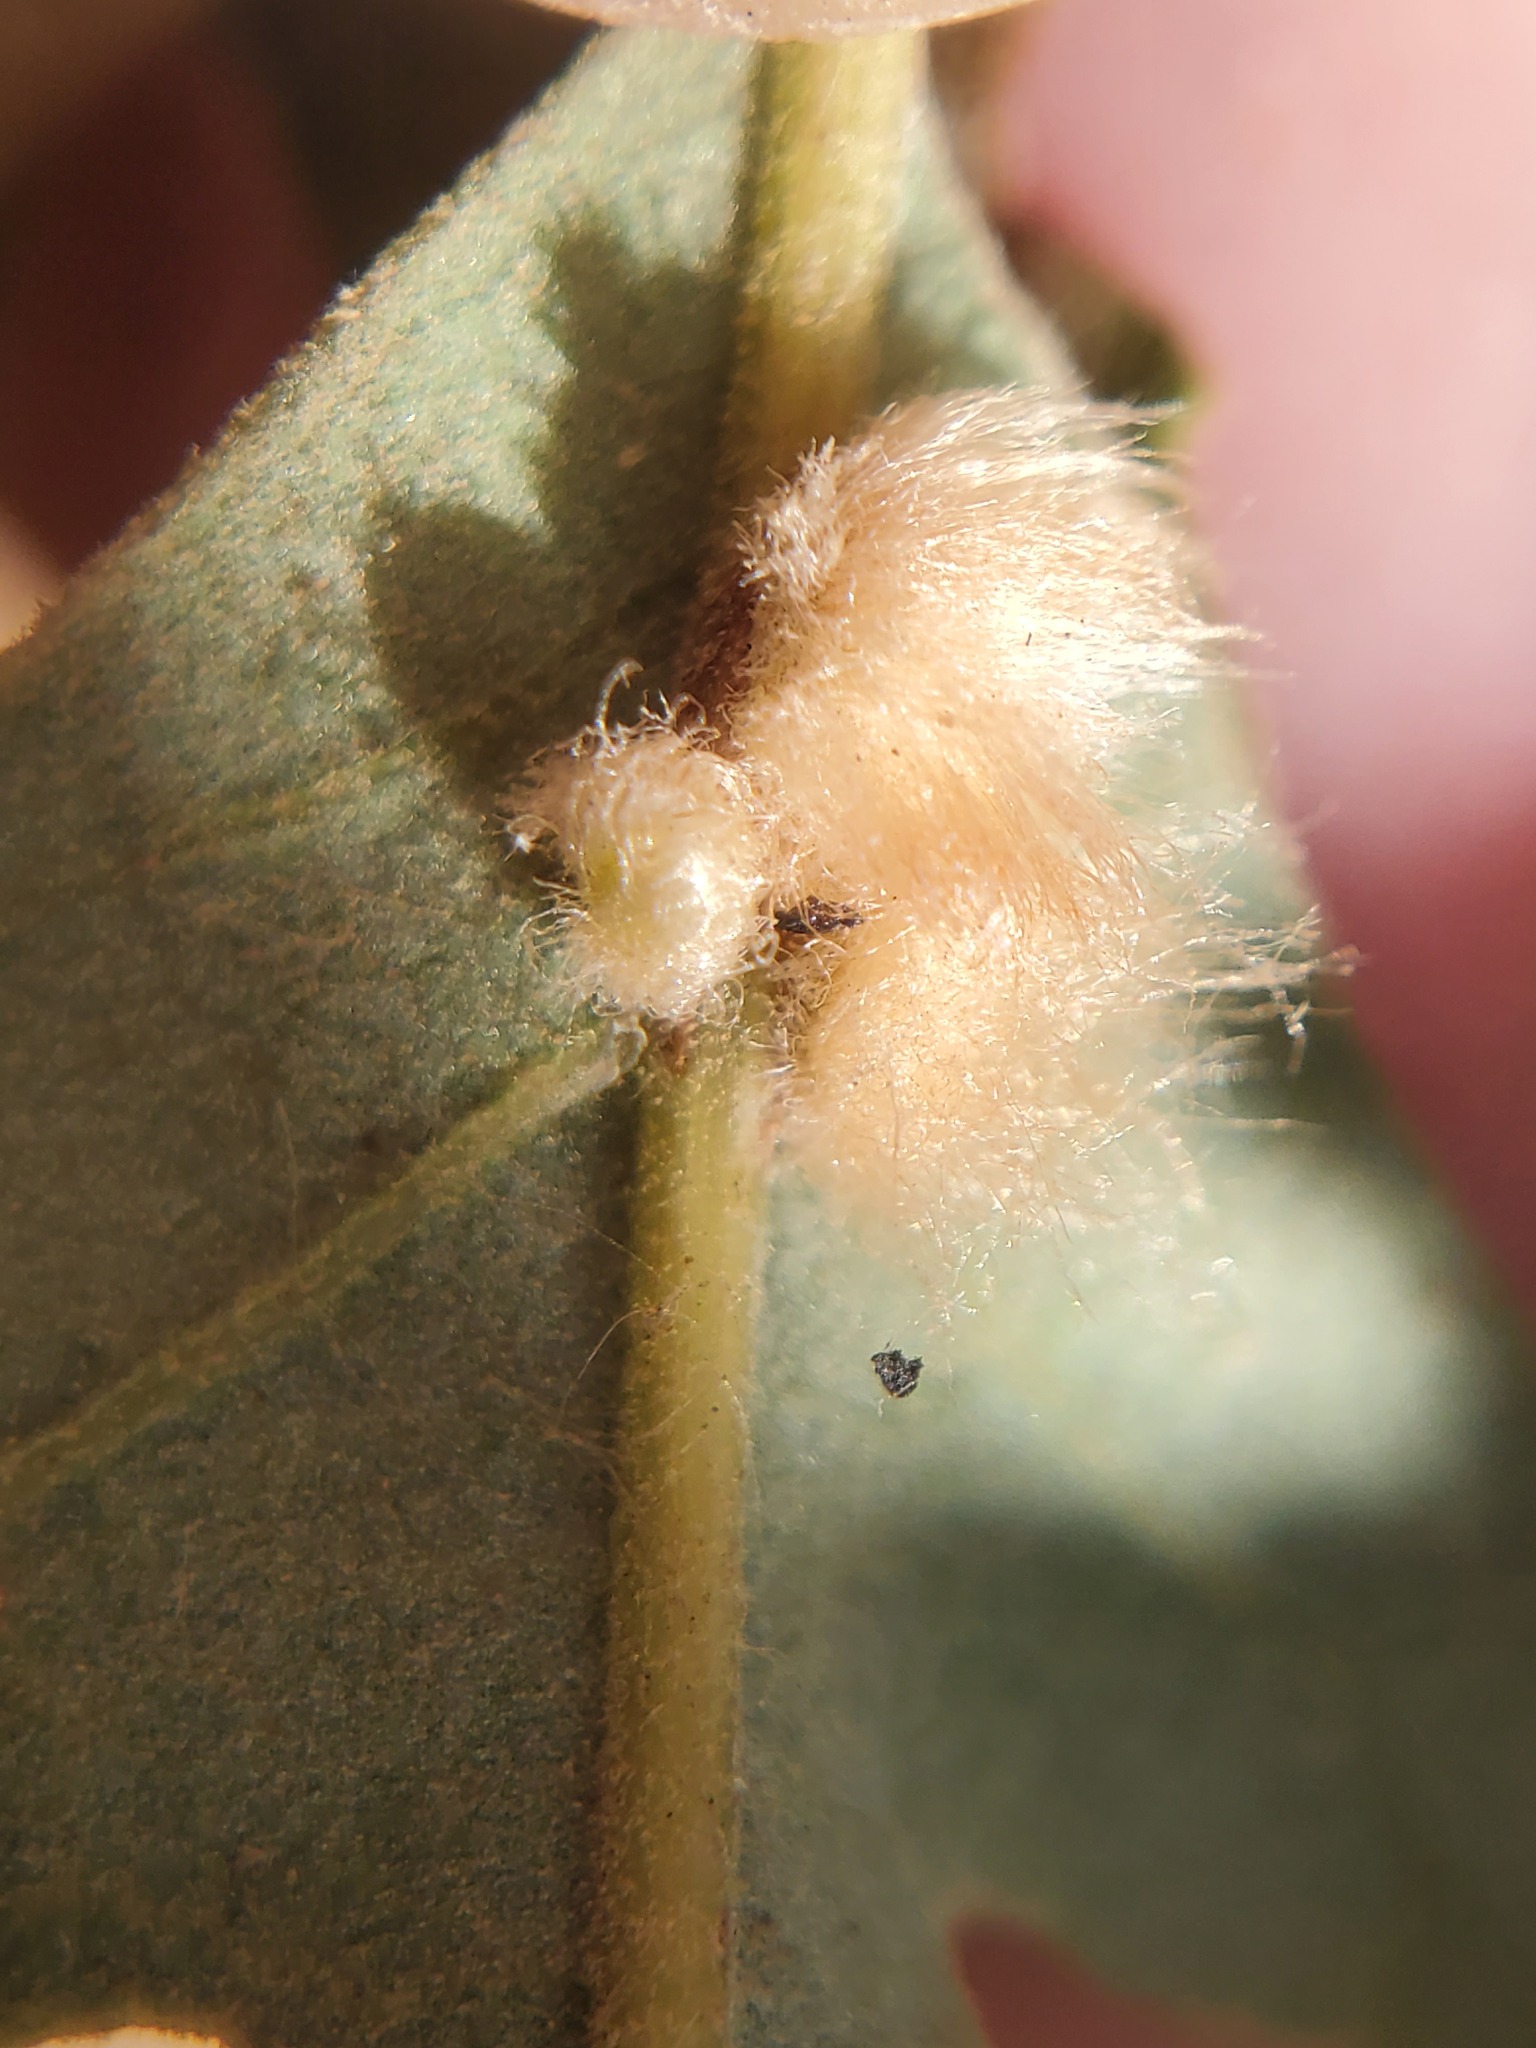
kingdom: Animalia
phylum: Arthropoda
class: Insecta
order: Hymenoptera
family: Cynipidae
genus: Andricus
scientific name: Andricus Druon fullawayi
